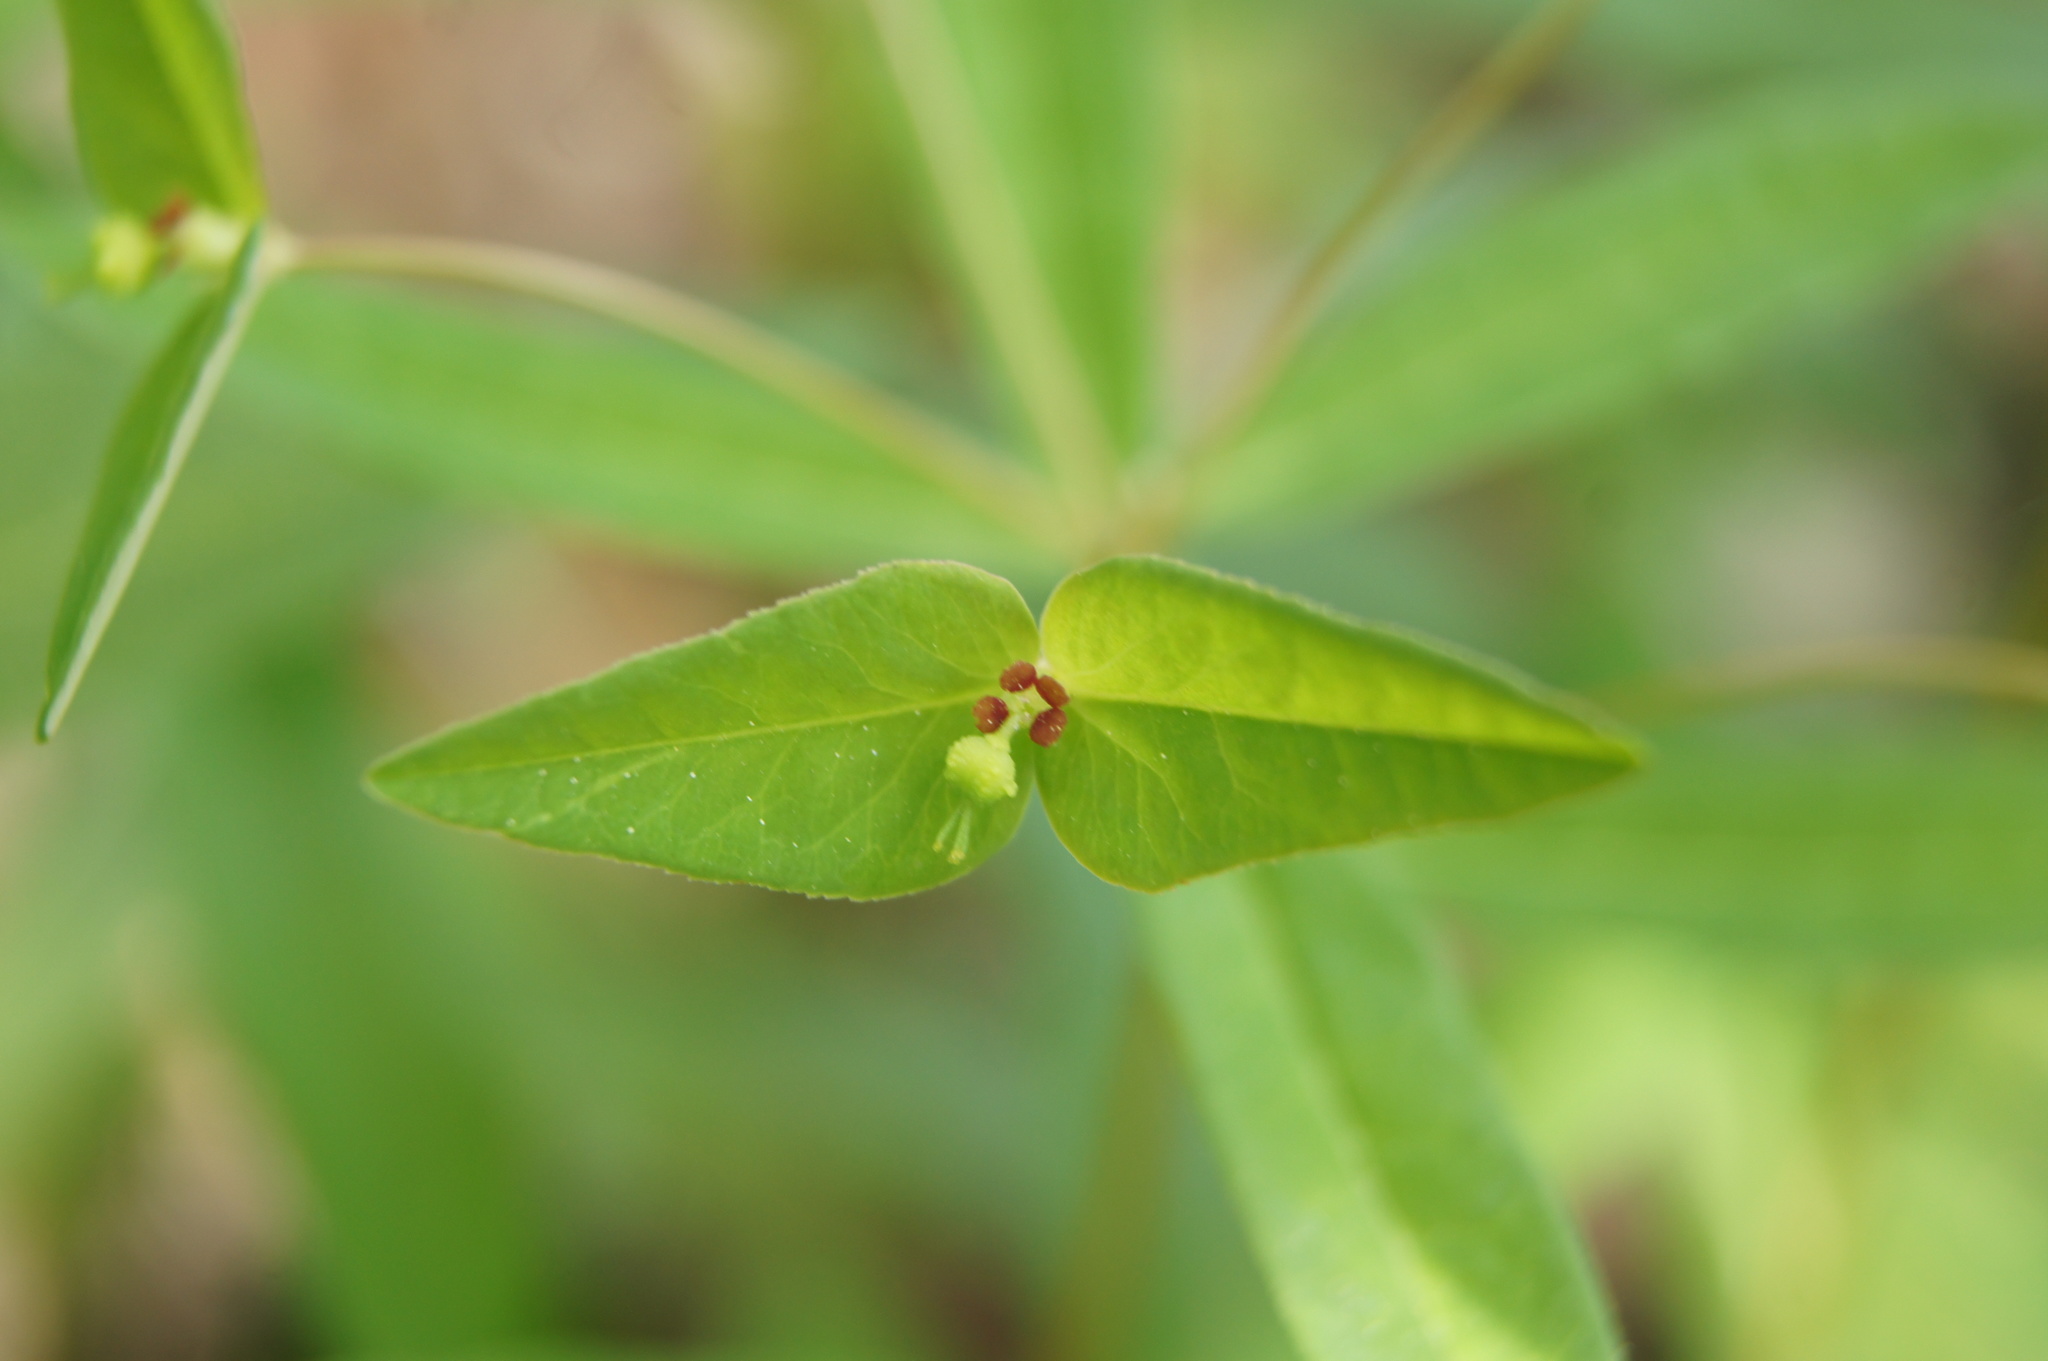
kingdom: Plantae
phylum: Tracheophyta
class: Magnoliopsida
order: Malpighiales
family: Euphorbiaceae
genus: Euphorbia
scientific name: Euphorbia dulcis
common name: Sweet spurge
